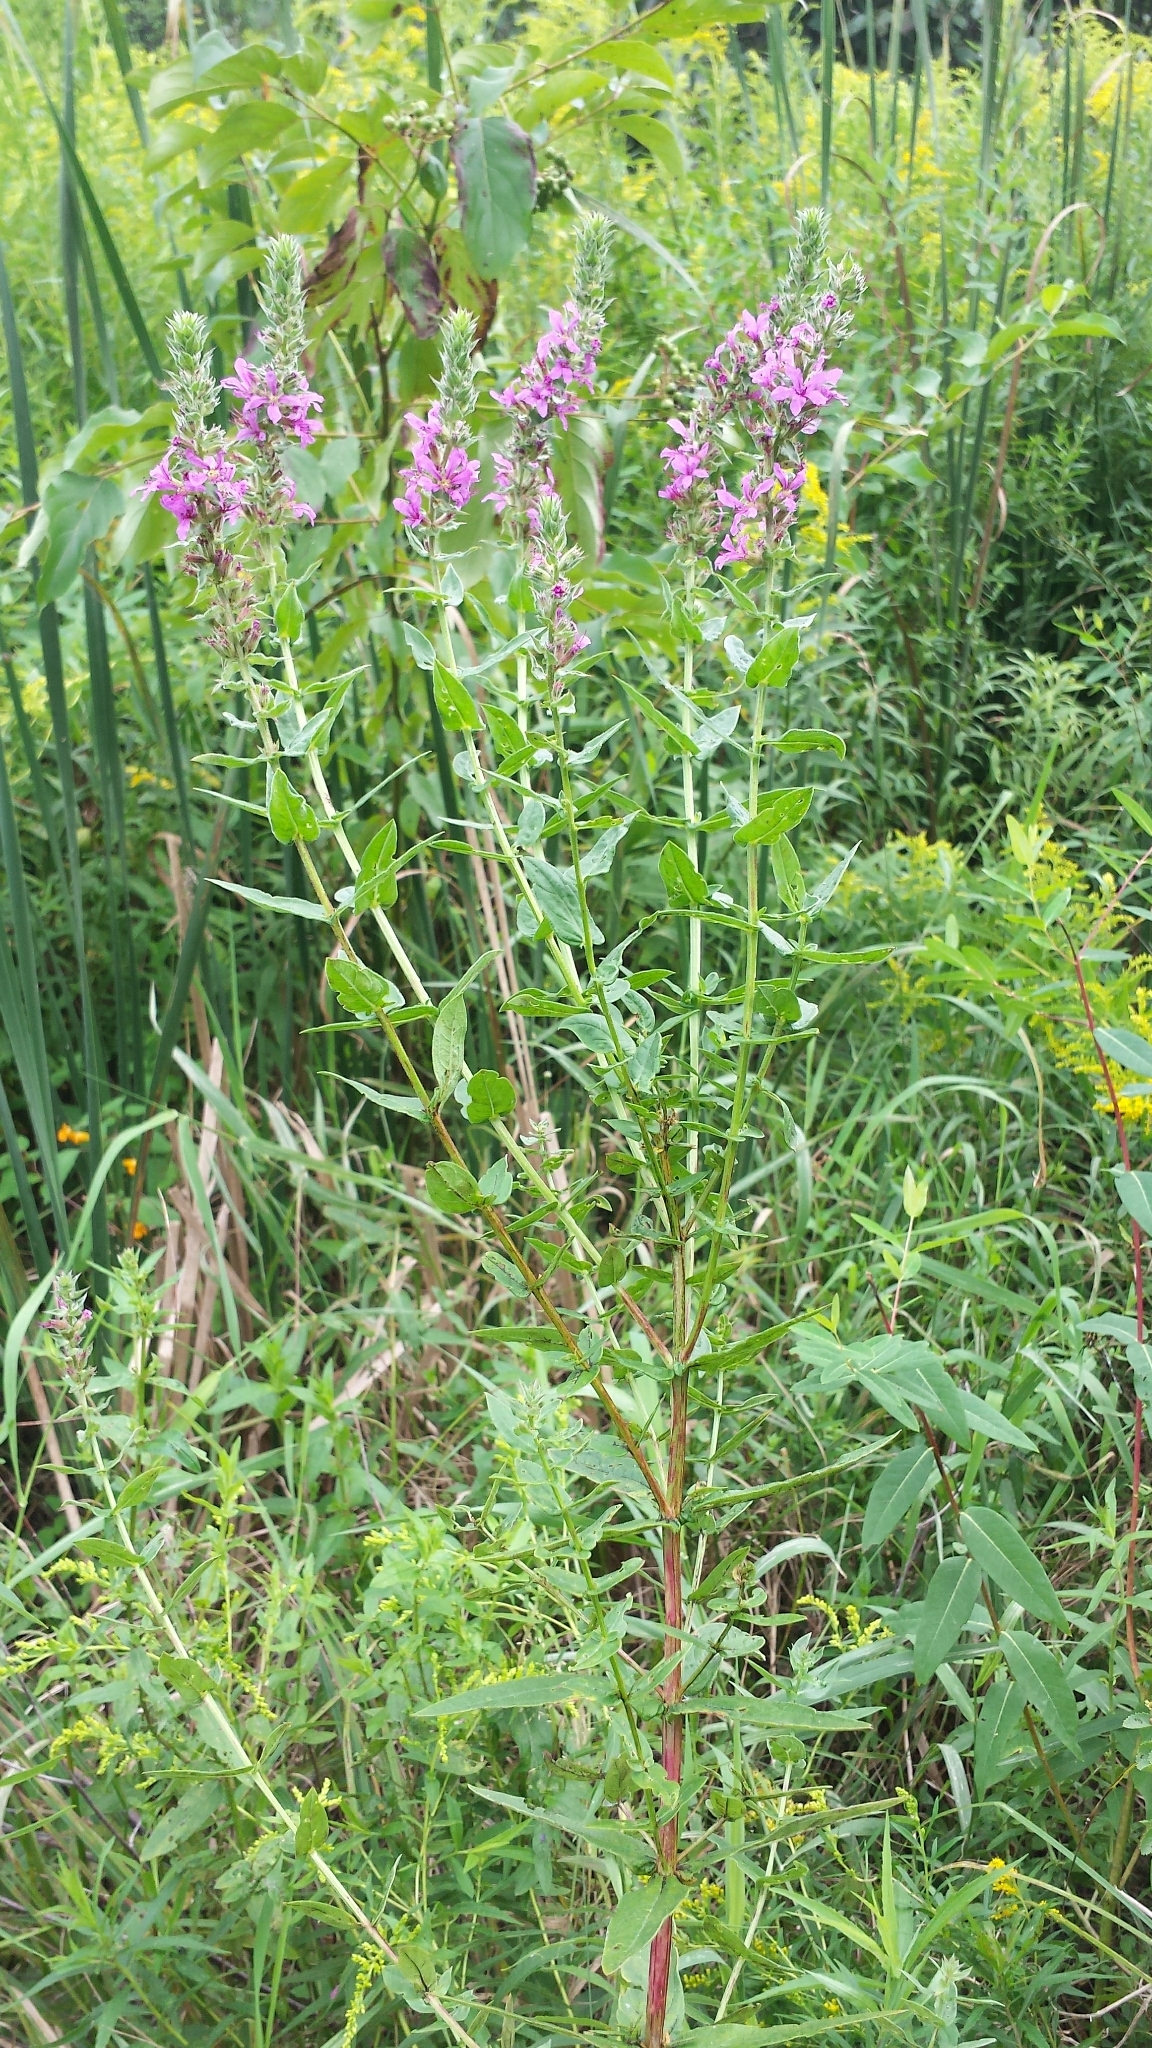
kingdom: Plantae
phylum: Tracheophyta
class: Magnoliopsida
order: Myrtales
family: Lythraceae
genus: Lythrum
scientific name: Lythrum salicaria
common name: Purple loosestrife
